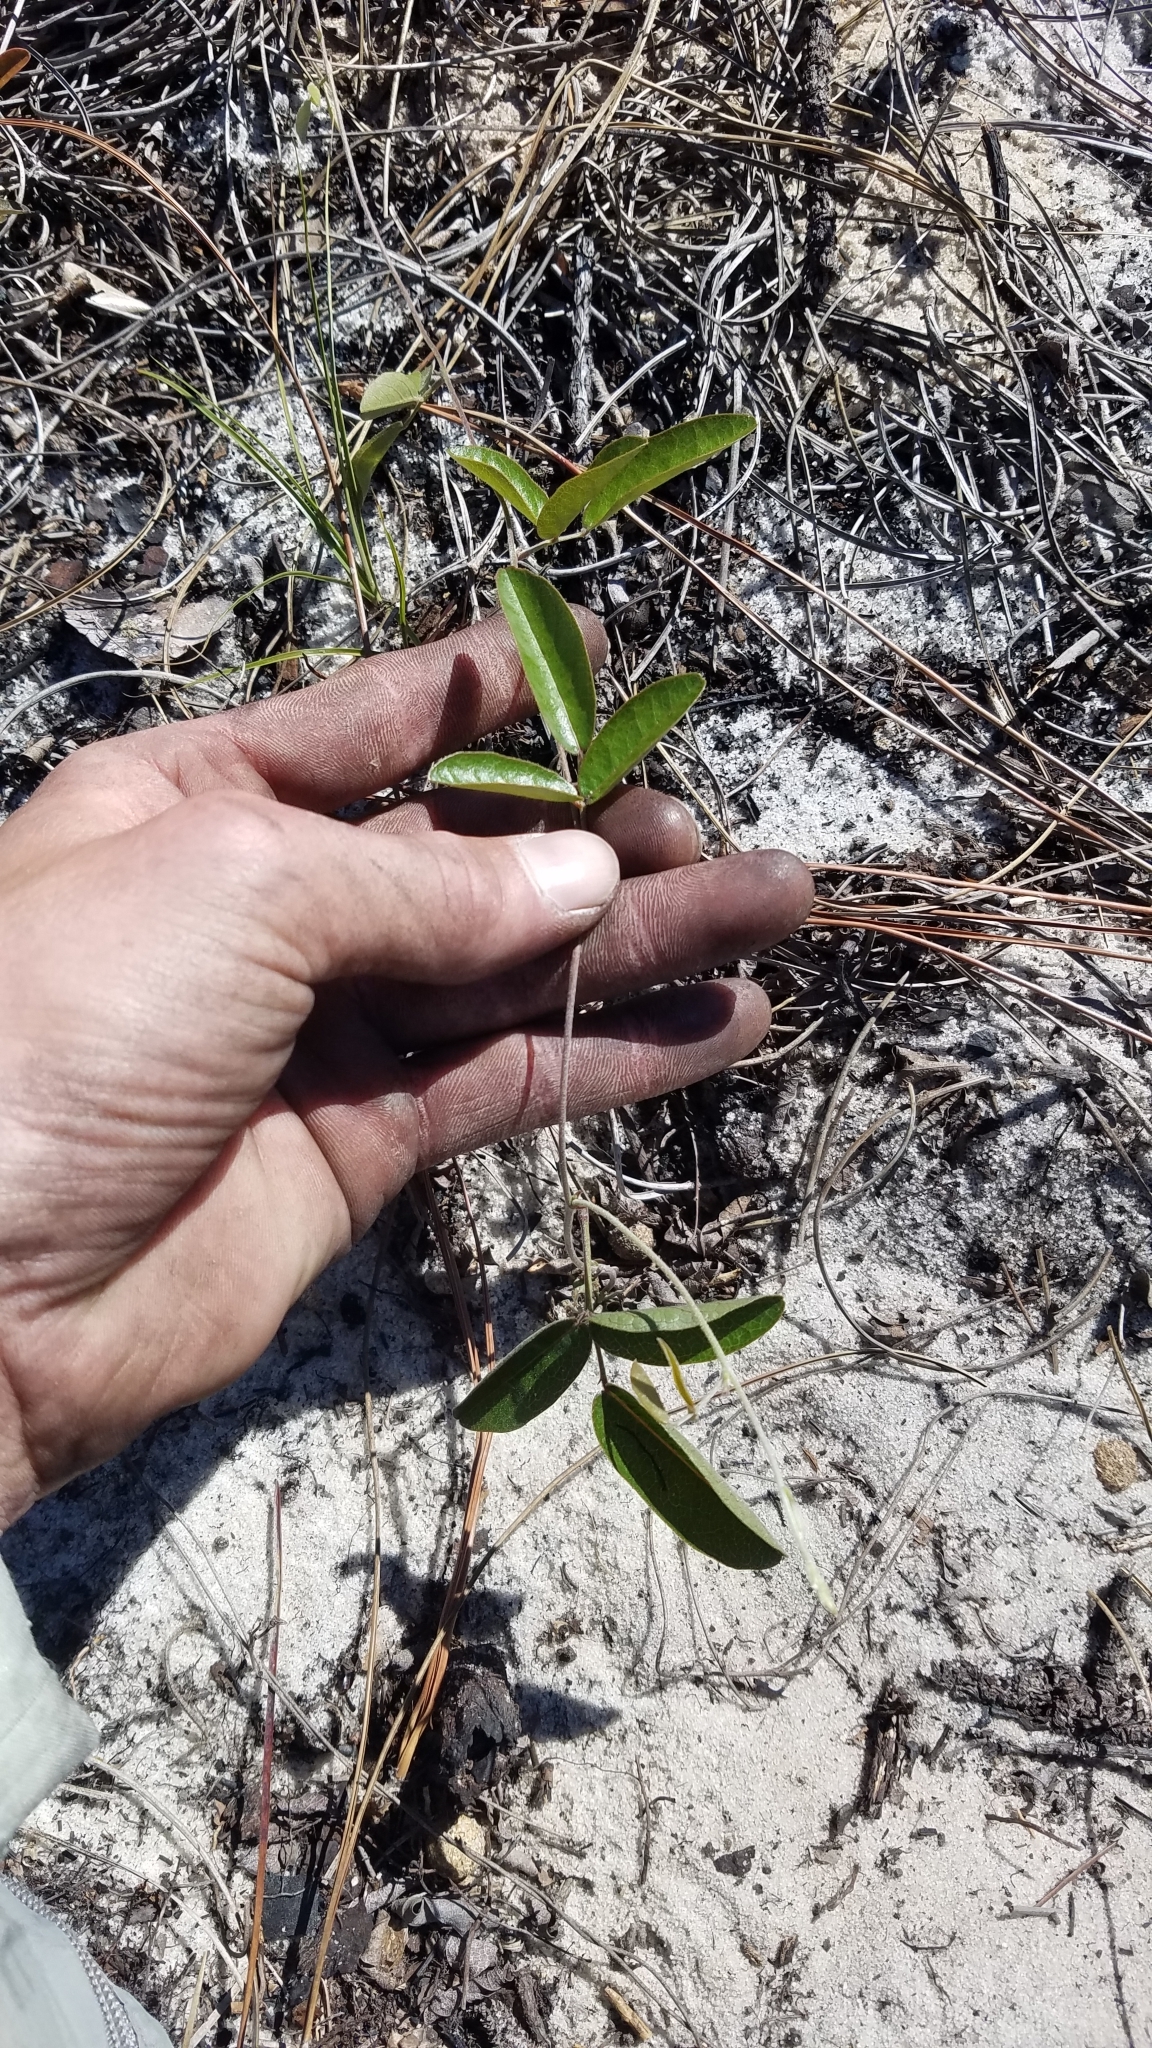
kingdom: Plantae
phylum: Tracheophyta
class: Magnoliopsida
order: Fabales
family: Fabaceae
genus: Galactia
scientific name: Galactia floridana
